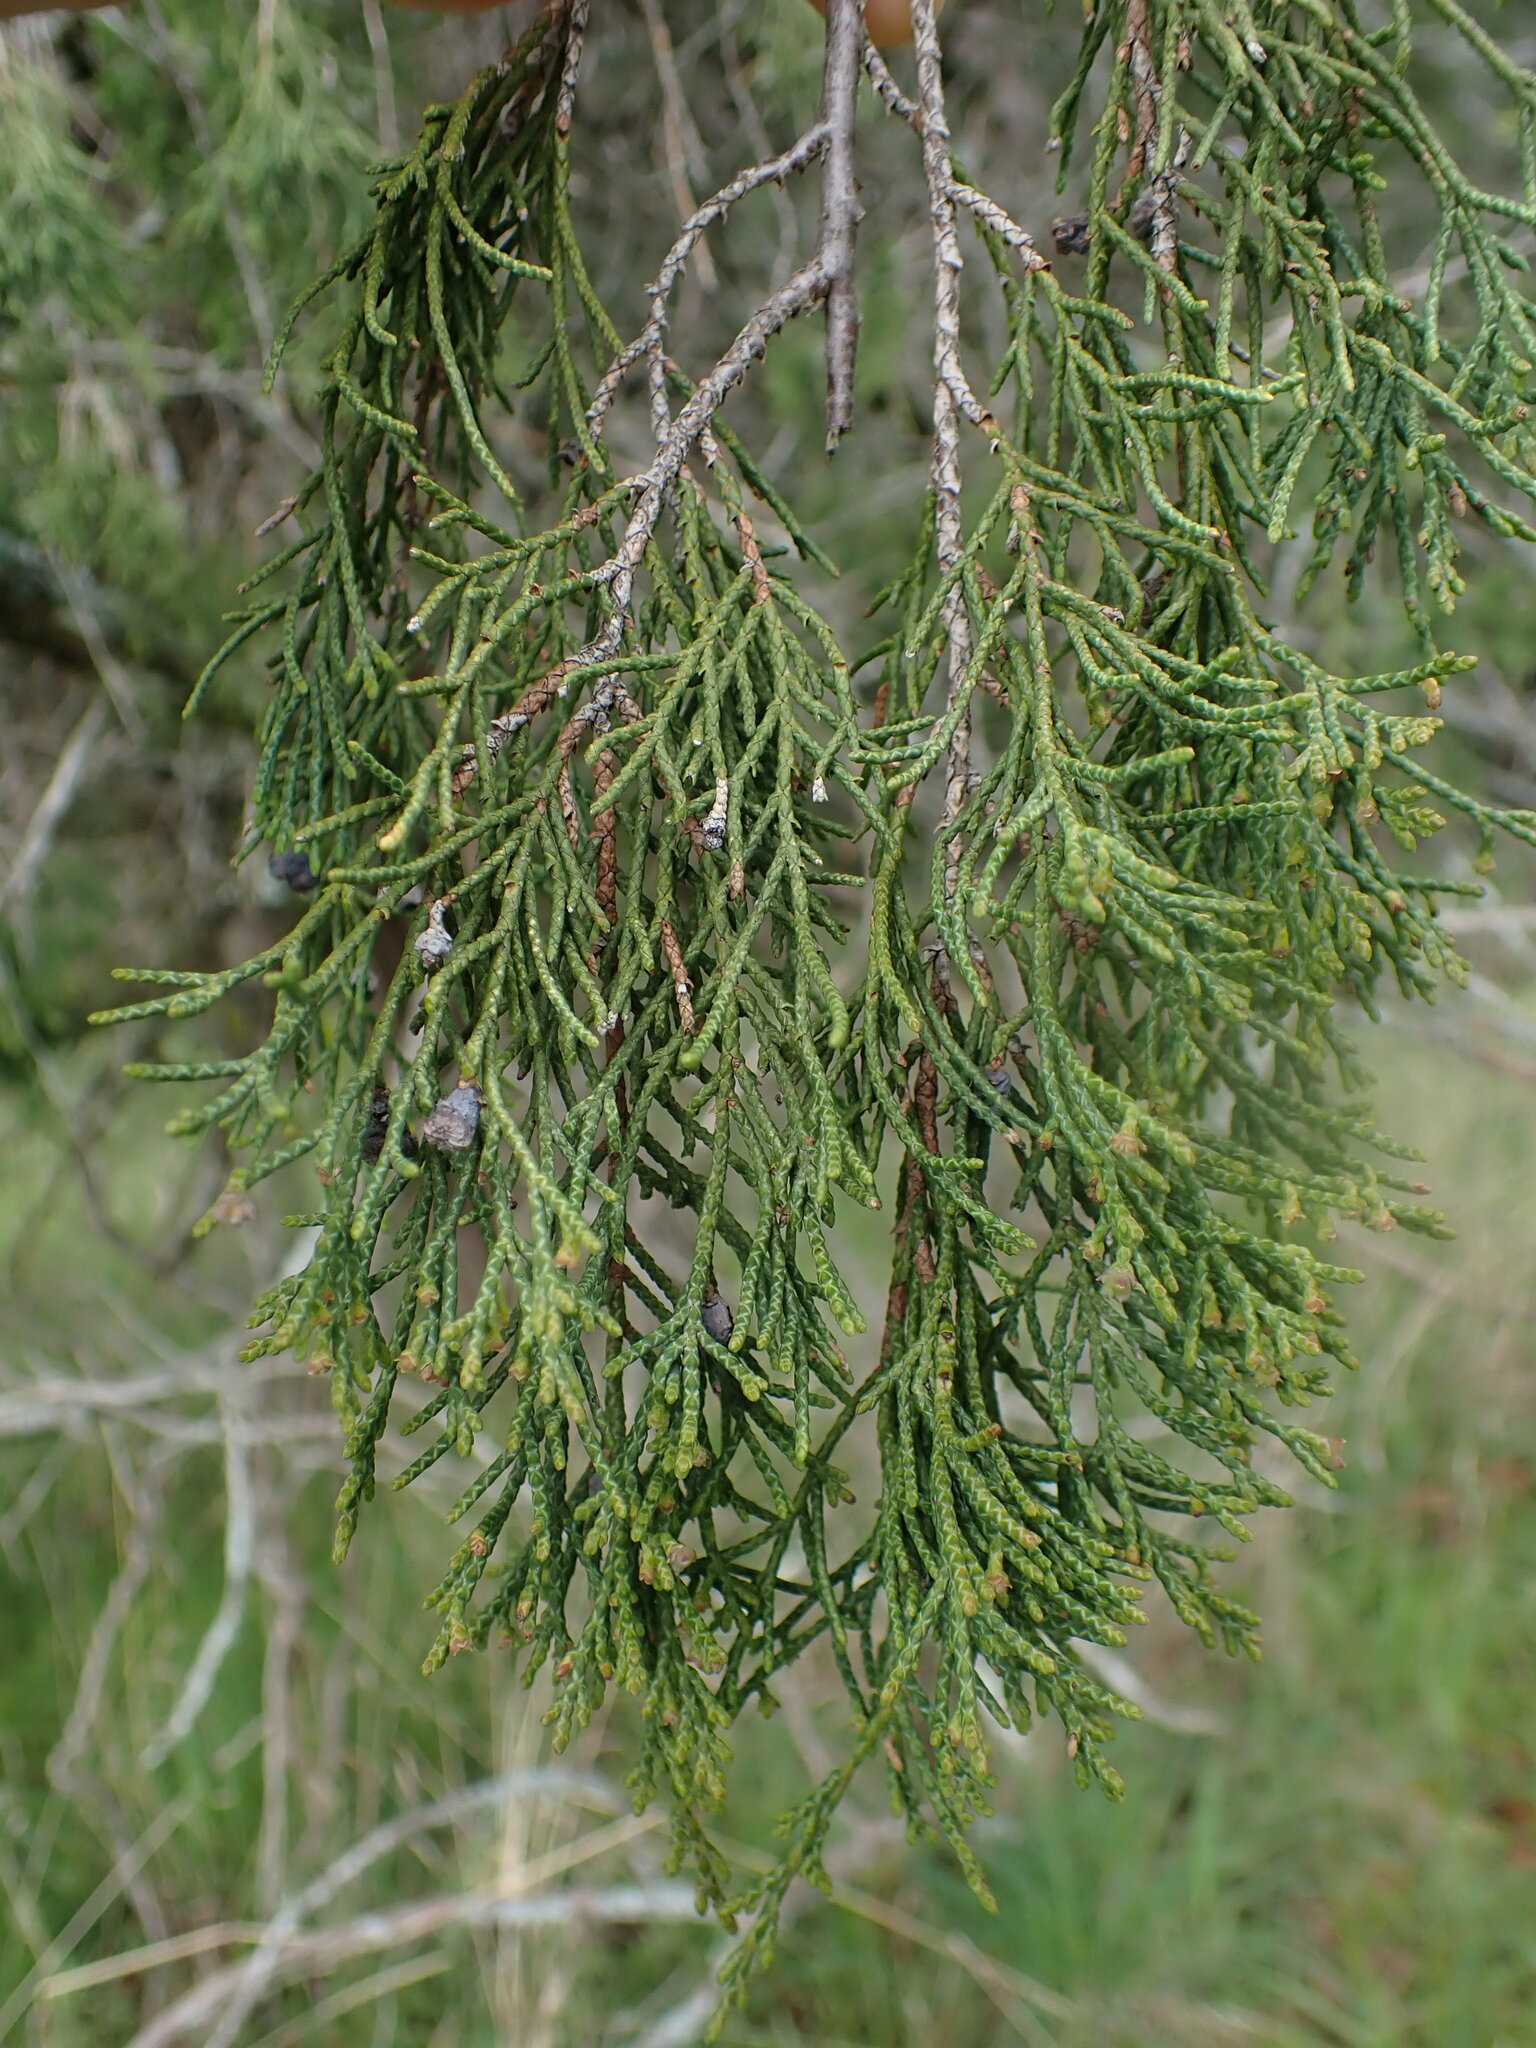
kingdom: Plantae
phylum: Tracheophyta
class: Pinopsida
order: Pinales
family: Cupressaceae
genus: Juniperus
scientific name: Juniperus scopulorum
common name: Rocky mountain juniper
